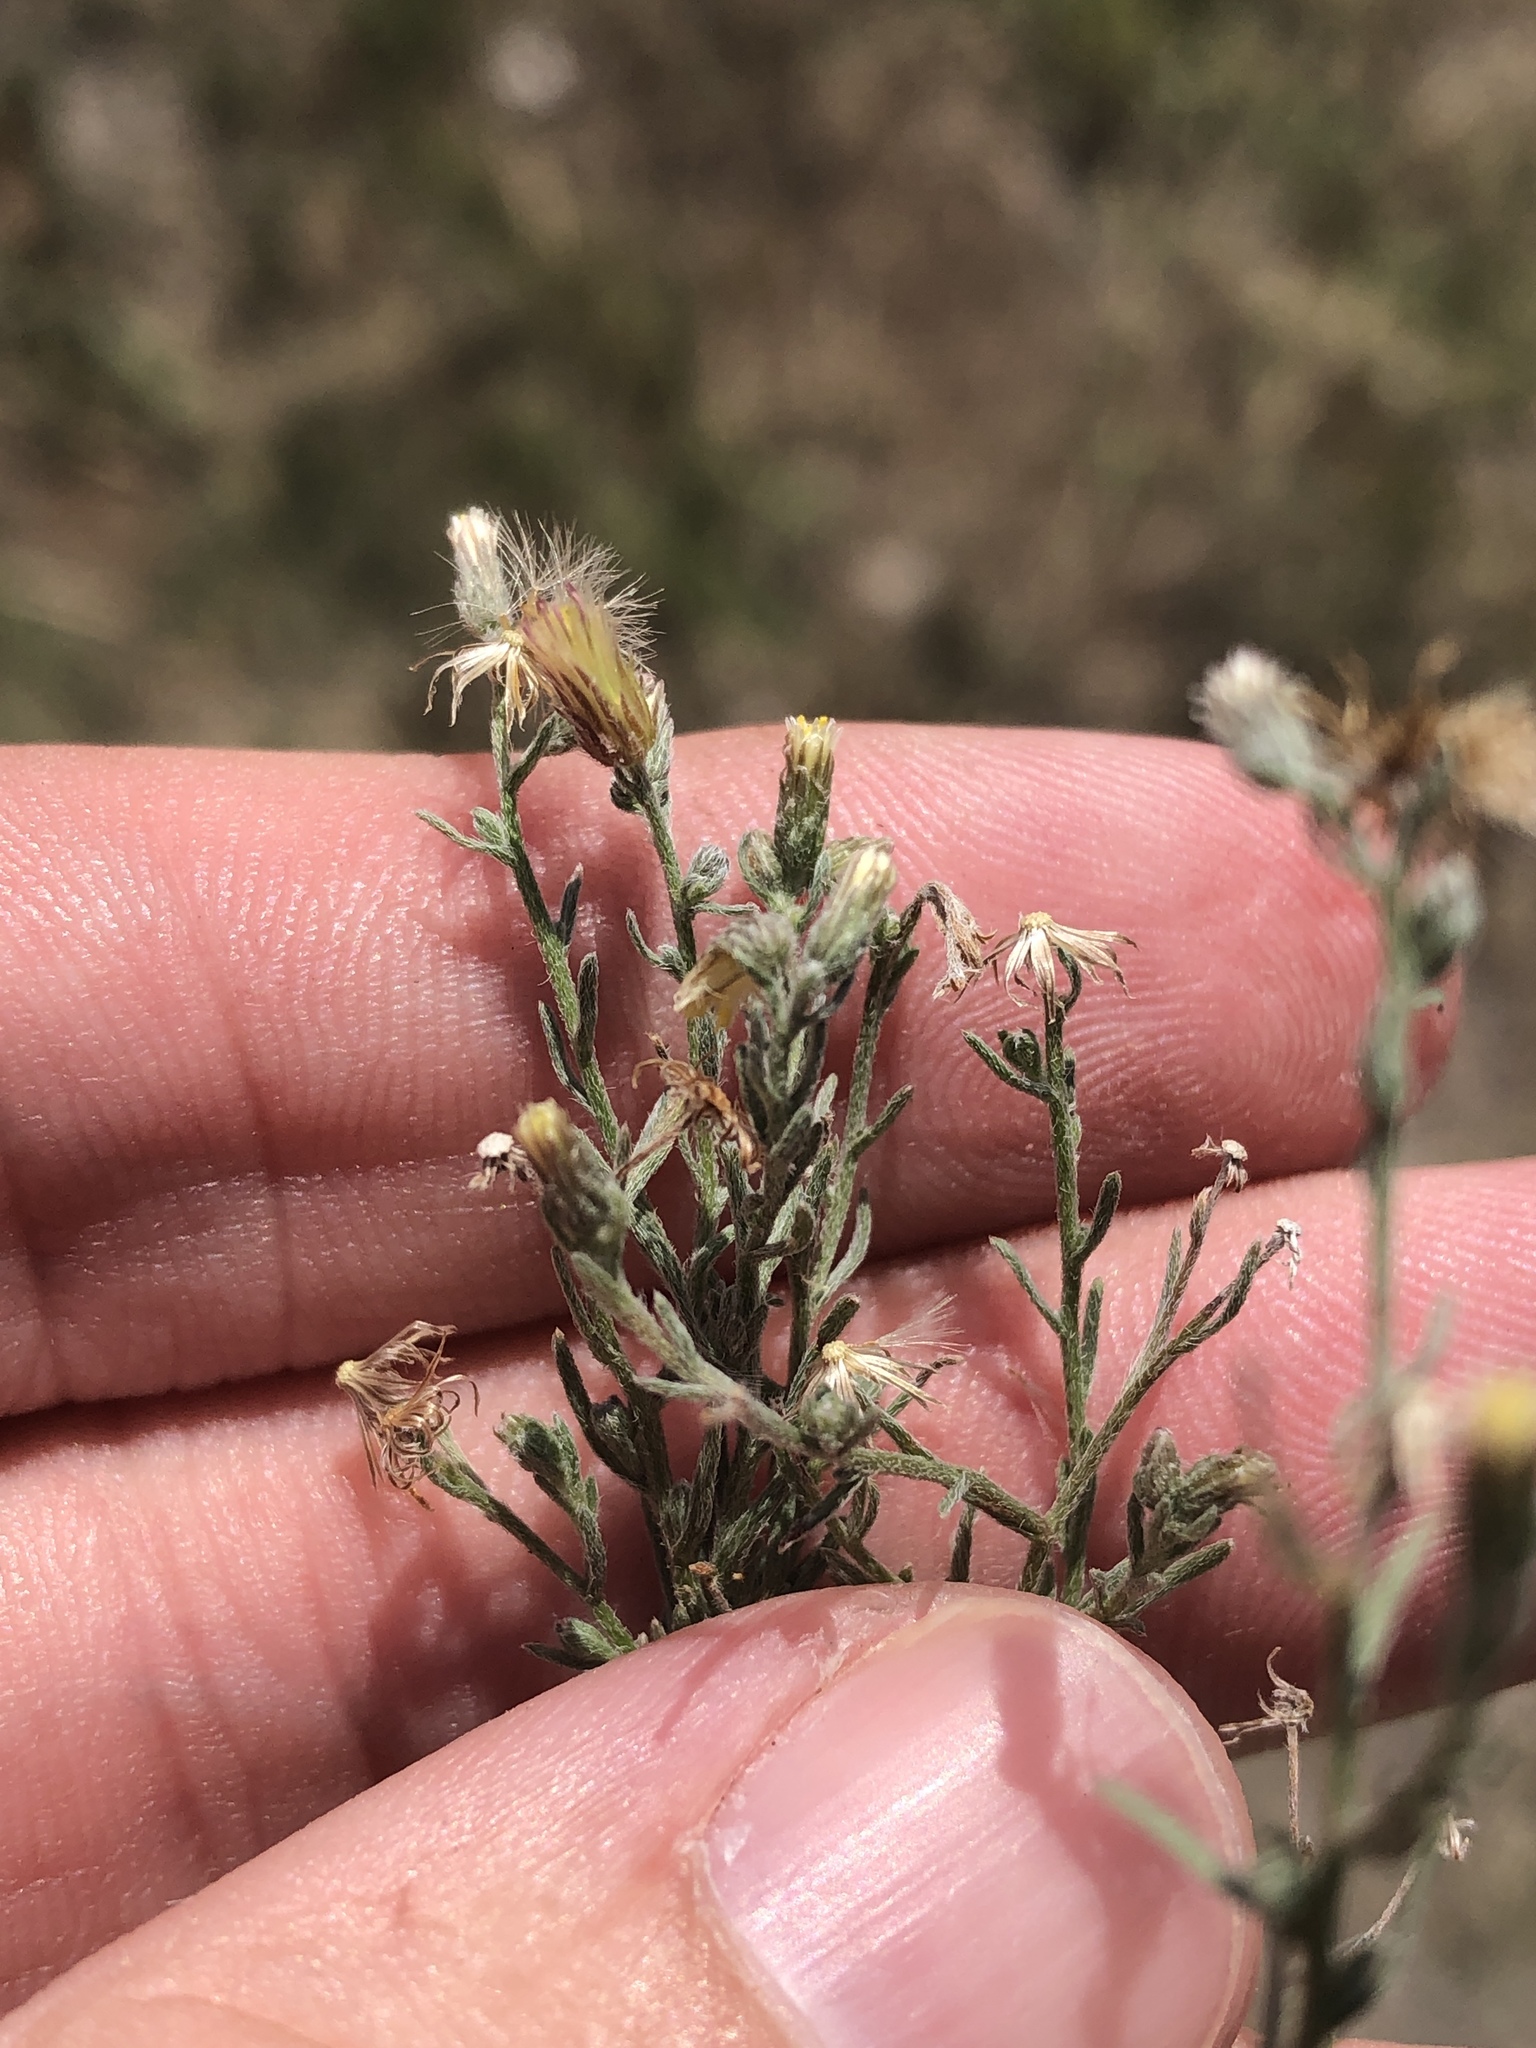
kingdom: Plantae
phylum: Tracheophyta
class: Magnoliopsida
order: Asterales
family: Asteraceae
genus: Erigeron
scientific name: Erigeron divaricatus
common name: Dwarf conyza
